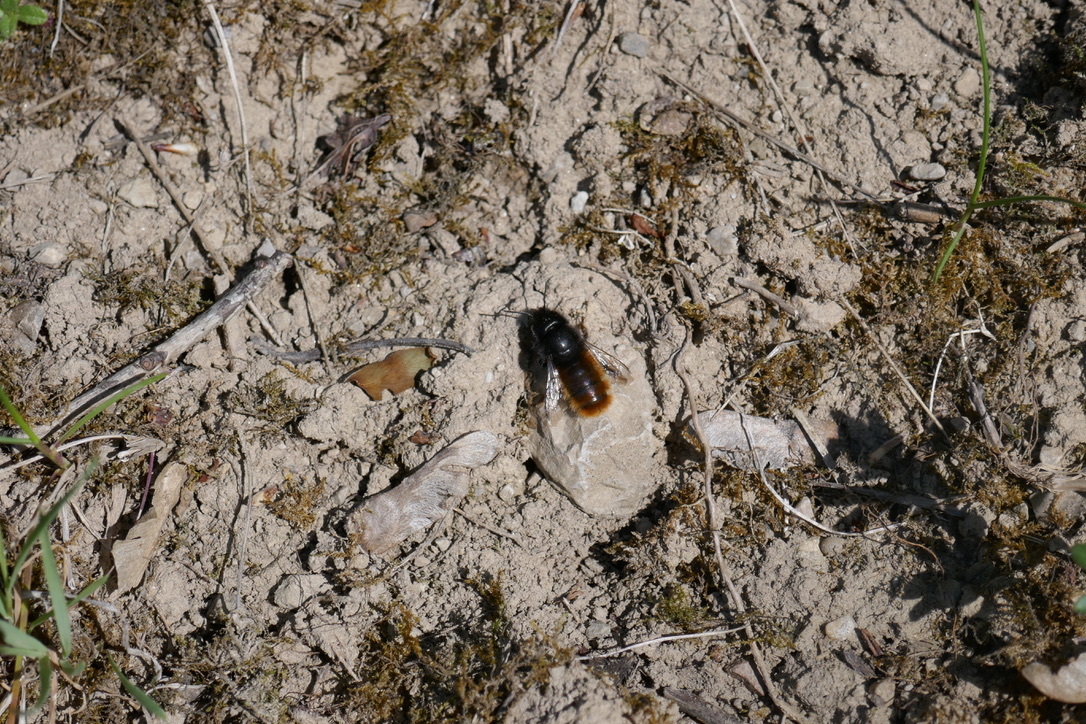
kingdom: Animalia
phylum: Arthropoda
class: Insecta
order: Hymenoptera
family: Megachilidae
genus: Osmia
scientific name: Osmia cornuta
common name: Mason bee
